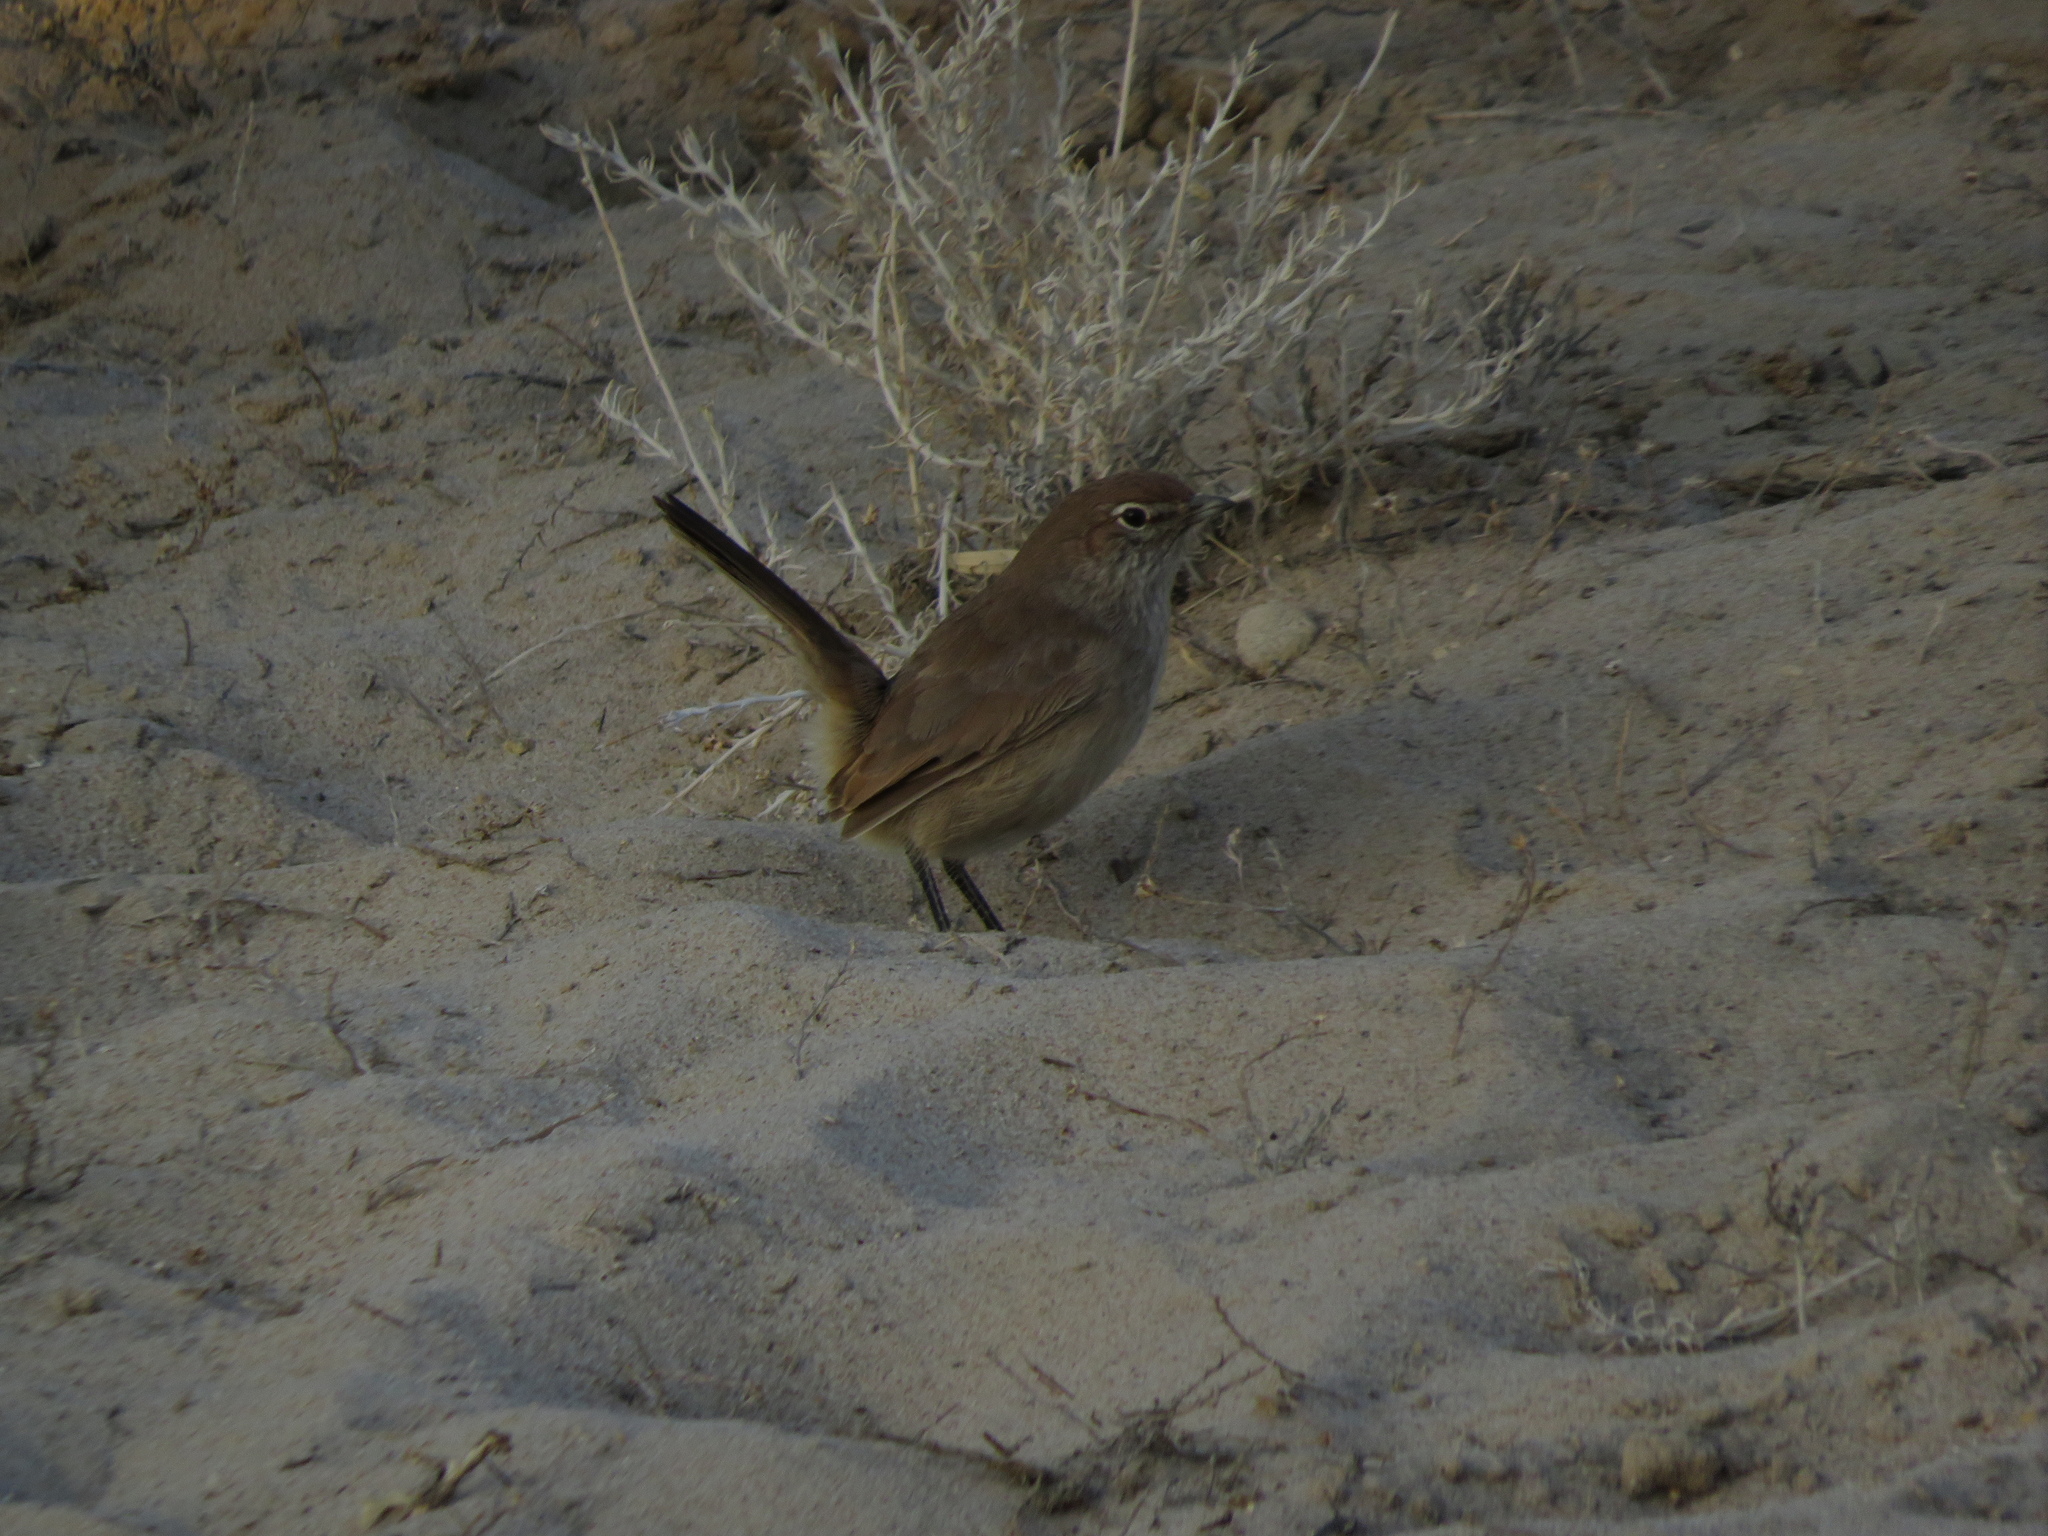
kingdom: Animalia
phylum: Chordata
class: Aves
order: Passeriformes
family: Rhinocryptidae
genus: Teledromas
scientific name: Teledromas fuscus
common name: Sandy gallito
